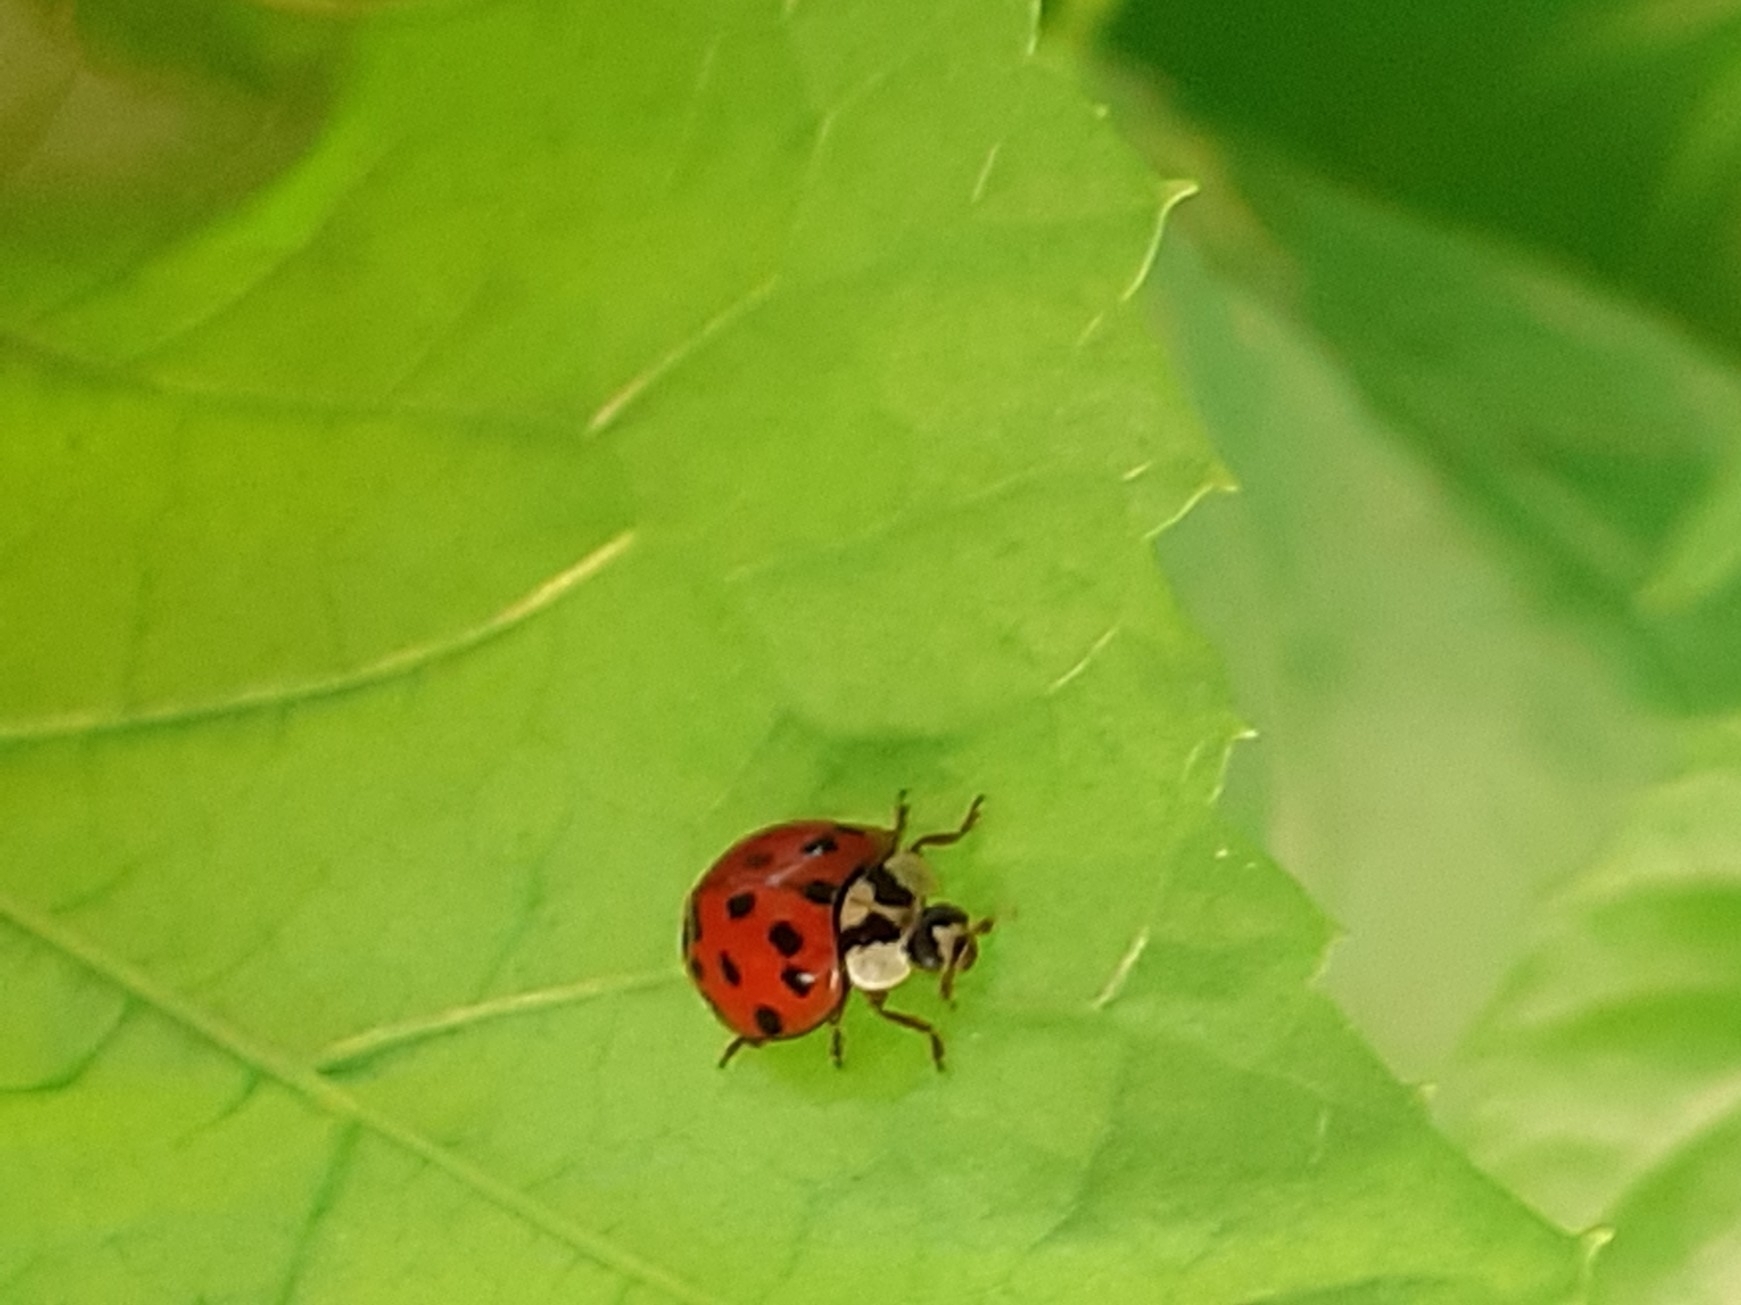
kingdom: Animalia
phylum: Arthropoda
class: Insecta
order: Coleoptera
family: Coccinellidae
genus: Harmonia
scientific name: Harmonia axyridis
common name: Harlequin ladybird
